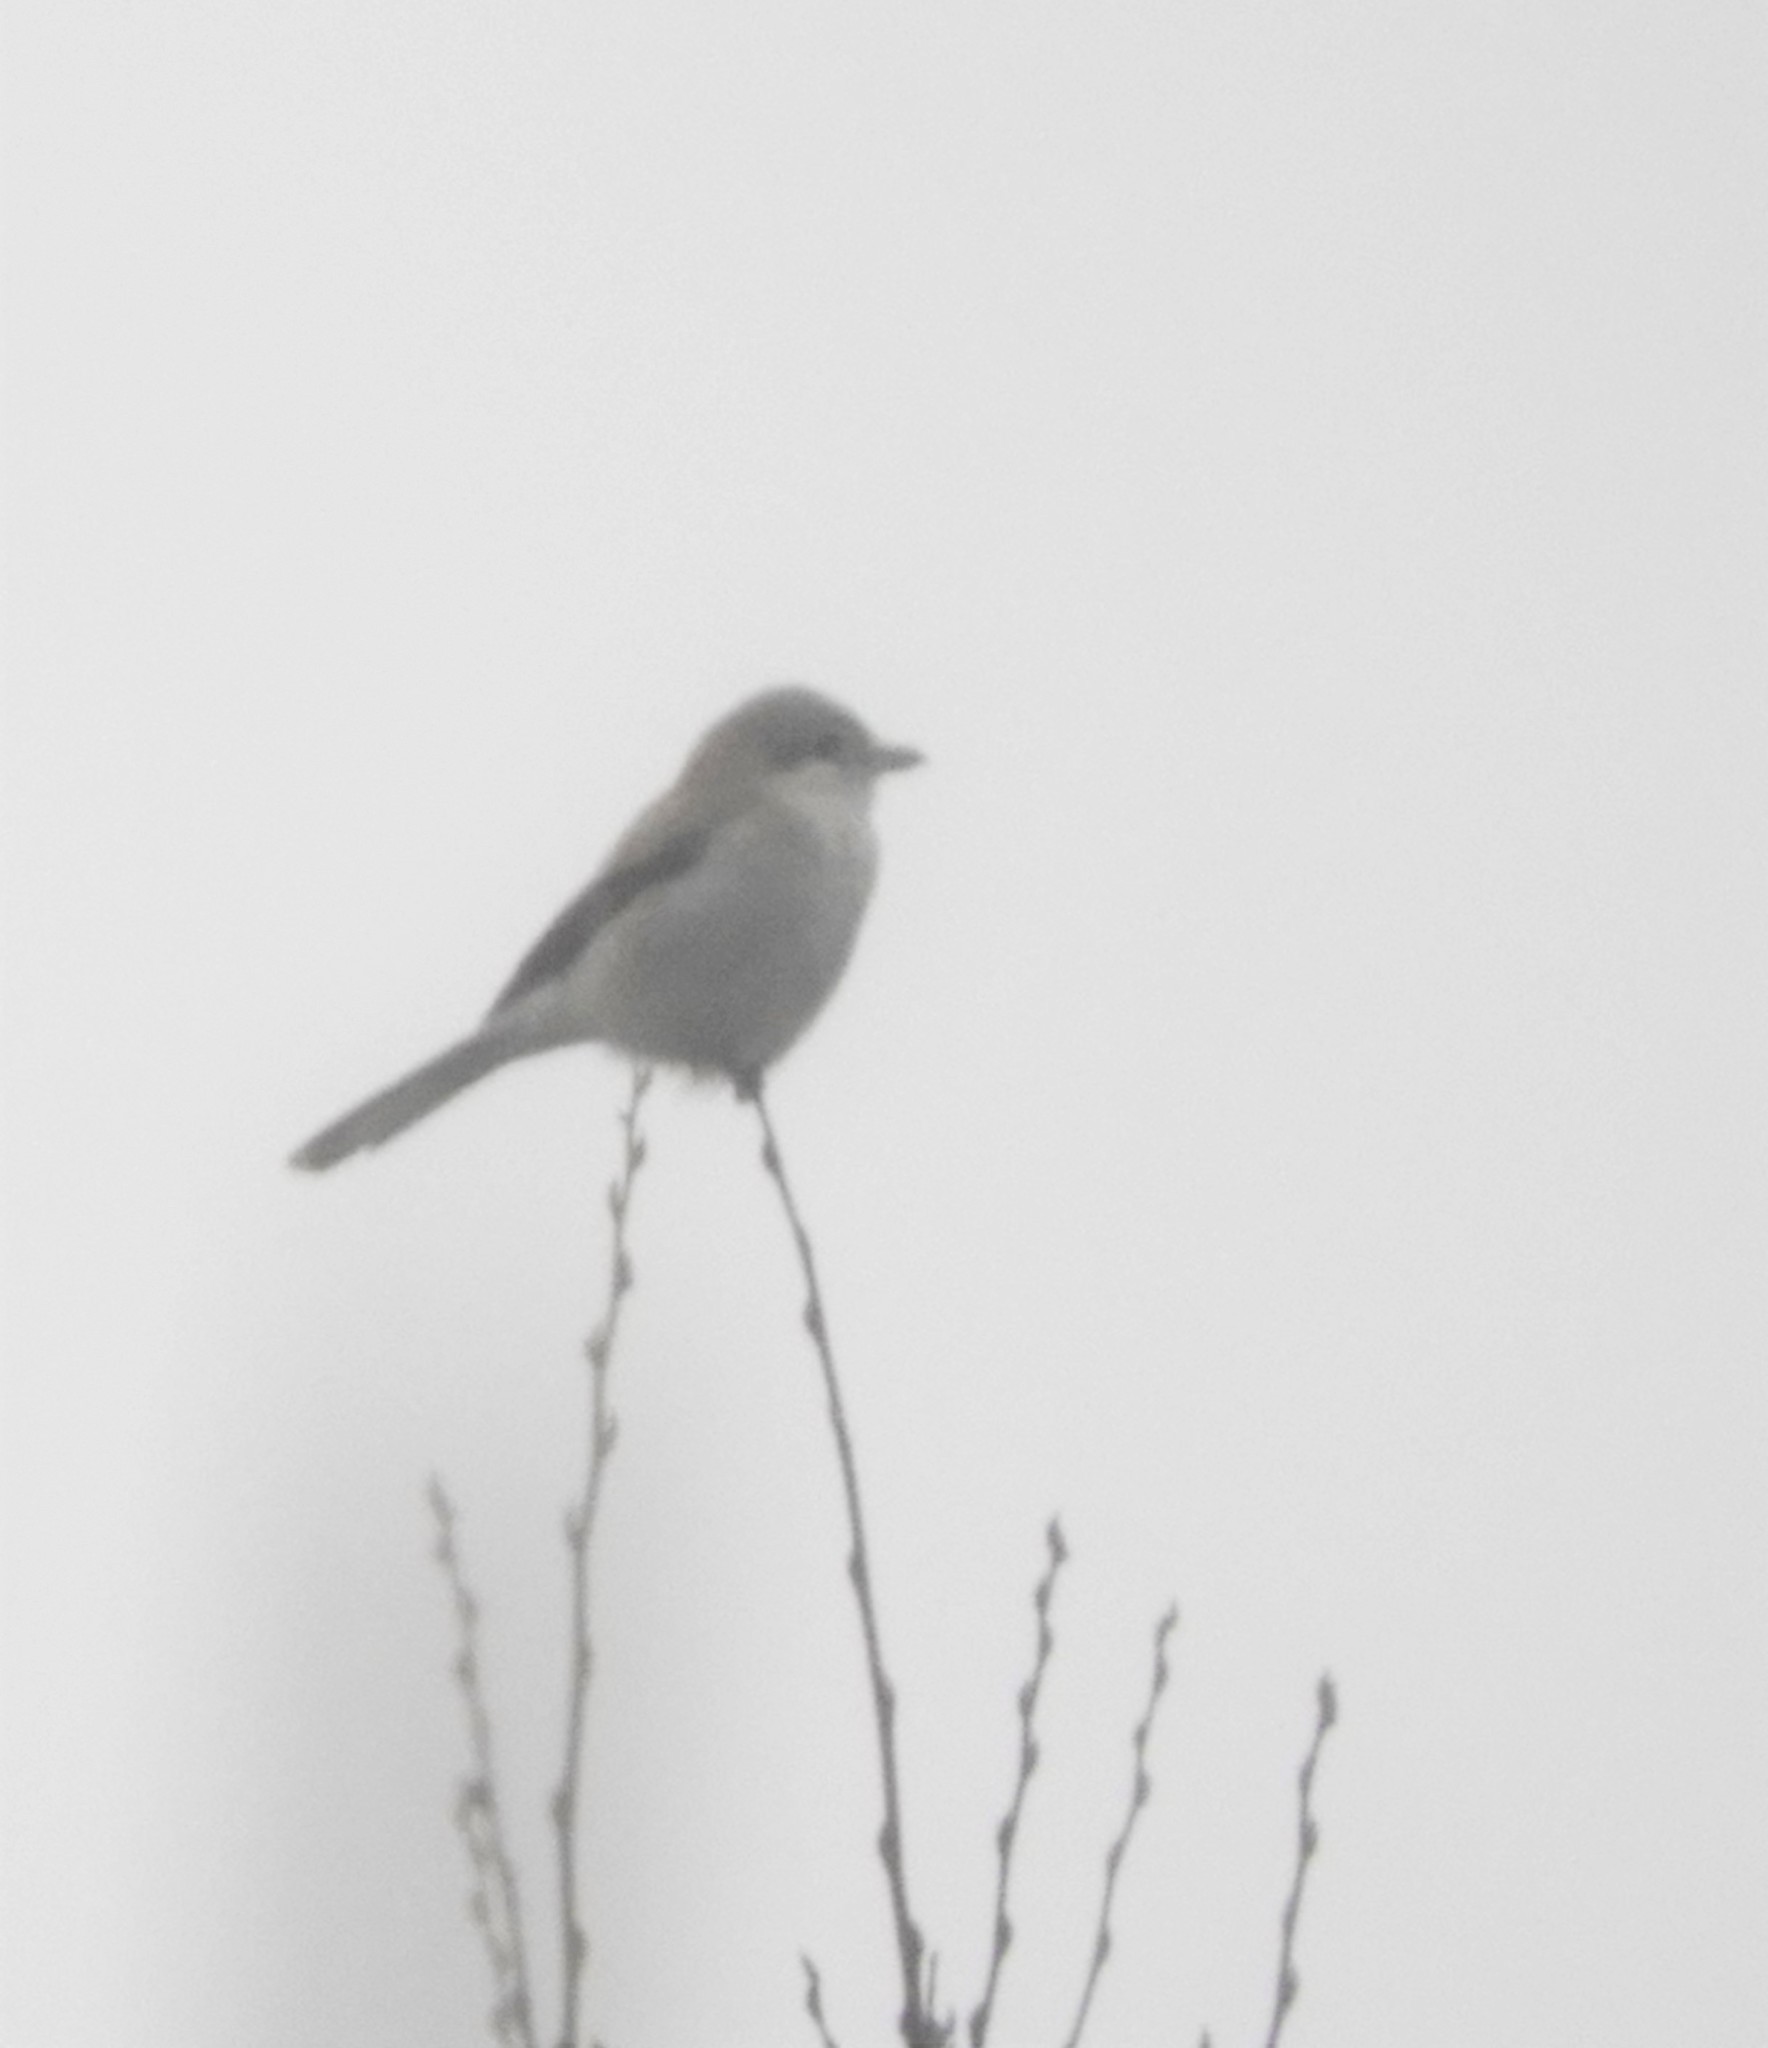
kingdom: Animalia
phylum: Chordata
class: Aves
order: Passeriformes
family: Laniidae
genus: Lanius
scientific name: Lanius borealis
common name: Northern shrike
